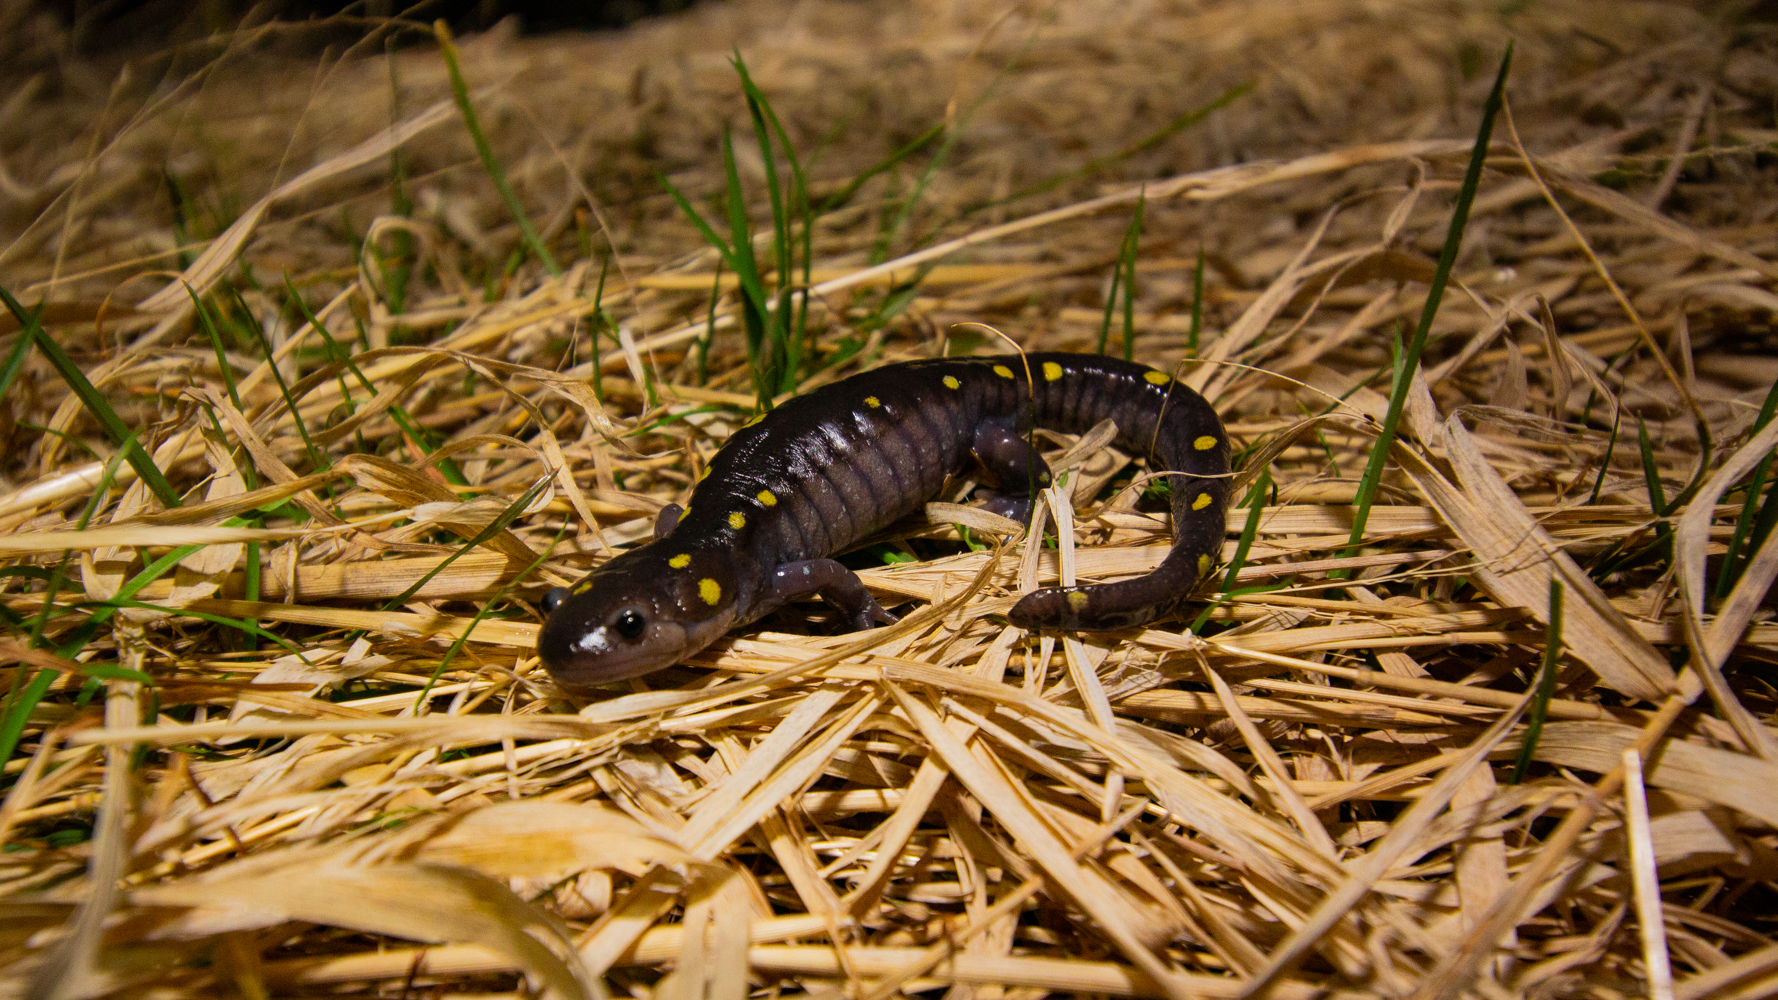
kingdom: Animalia
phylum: Chordata
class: Amphibia
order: Caudata
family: Ambystomatidae
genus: Ambystoma
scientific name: Ambystoma maculatum
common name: Spotted salamander
